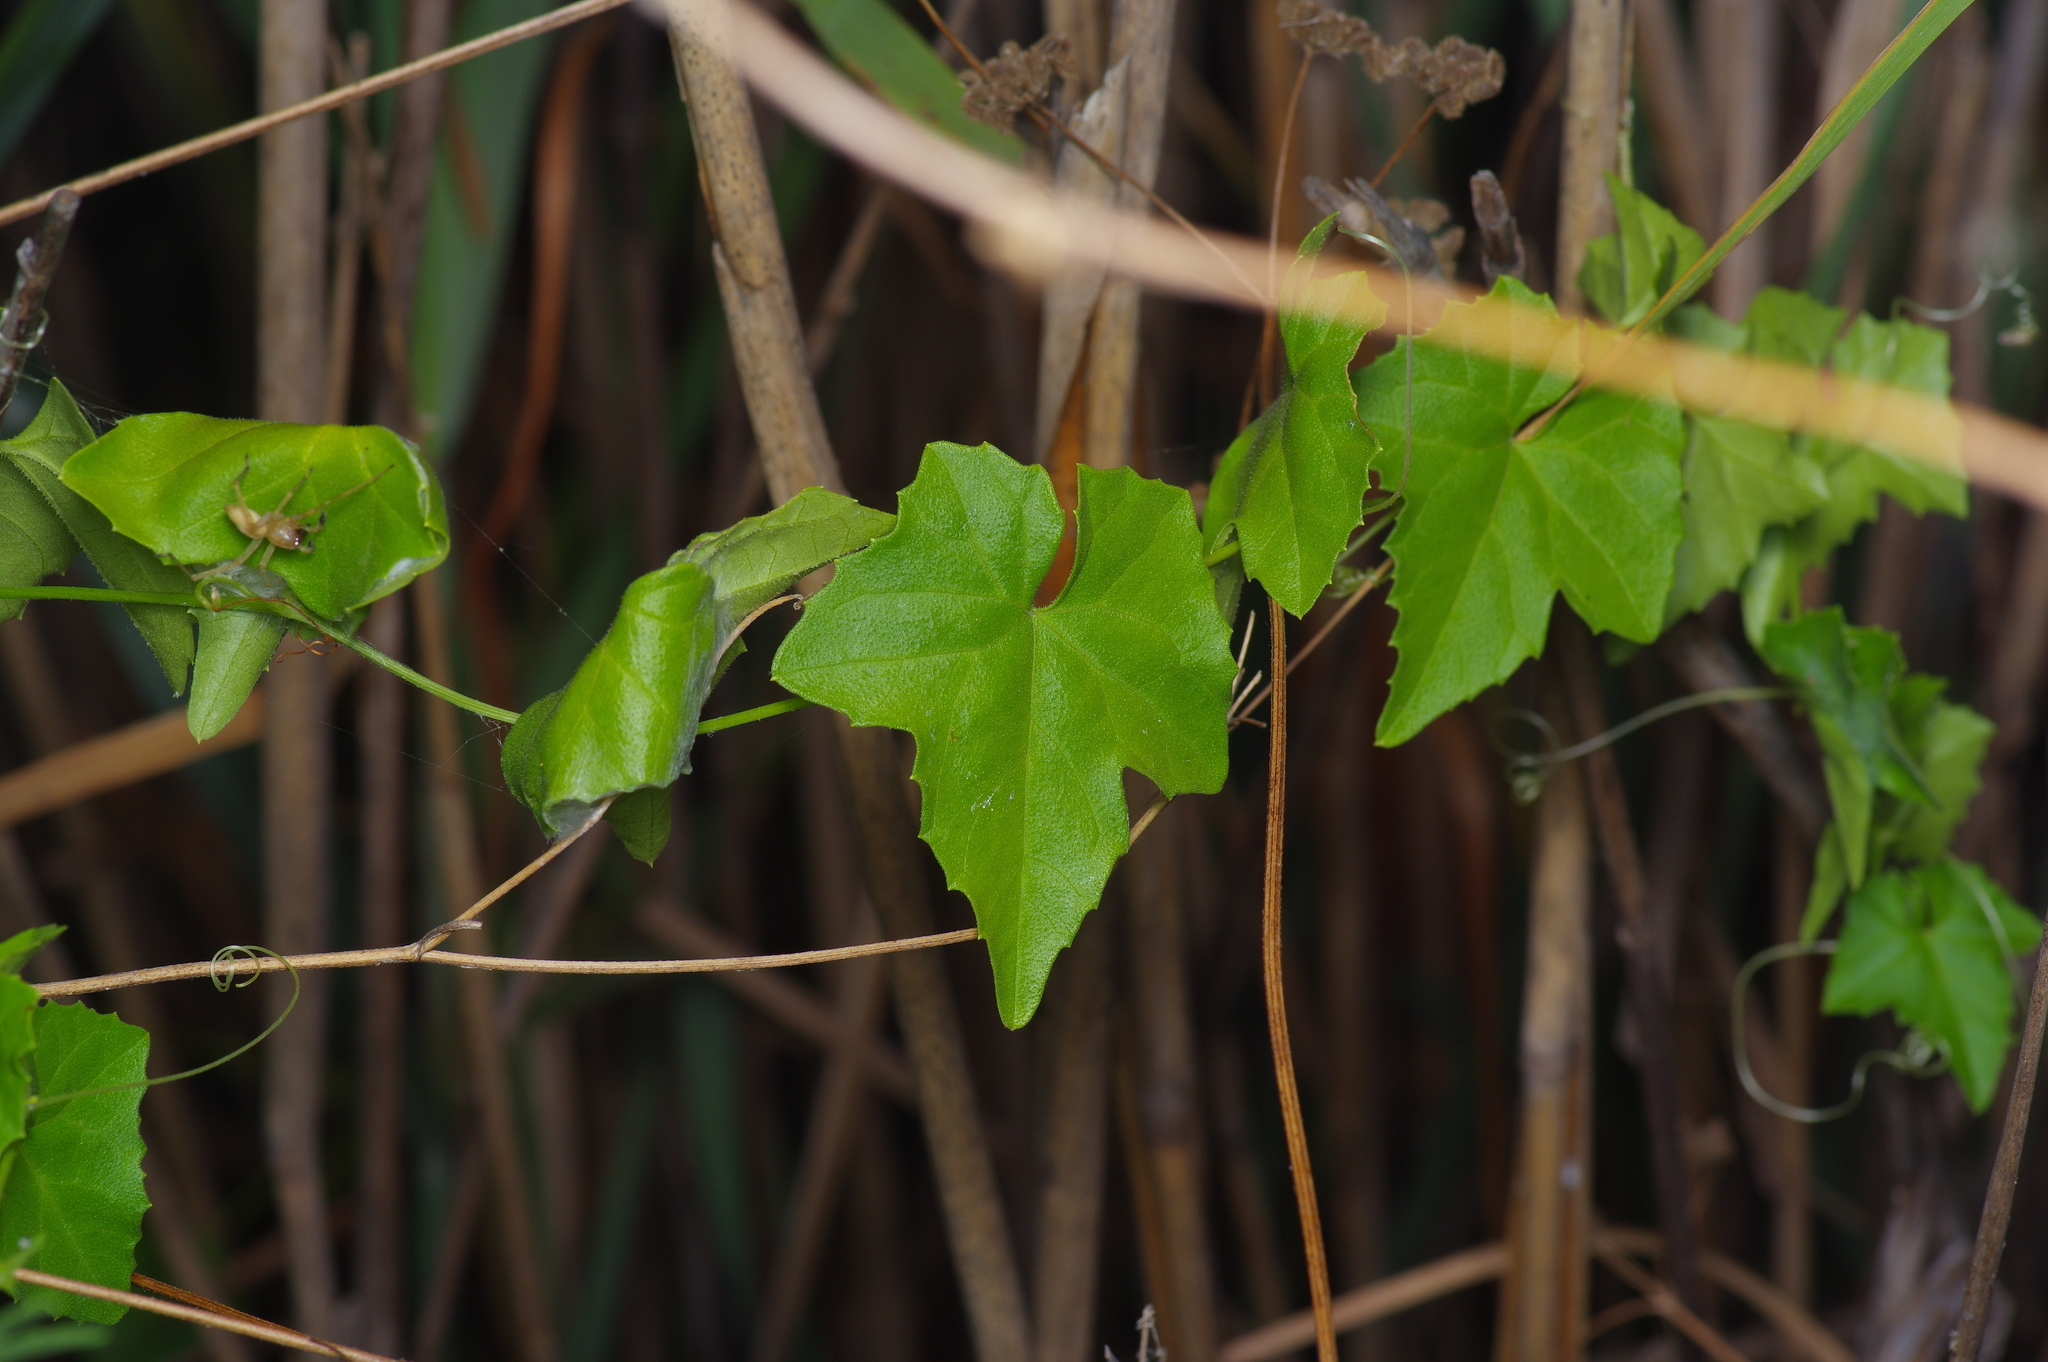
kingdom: Plantae
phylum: Tracheophyta
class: Magnoliopsida
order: Cucurbitales
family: Cucurbitaceae
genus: Melothria
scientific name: Melothria pendula
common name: Creeping-cucumber
